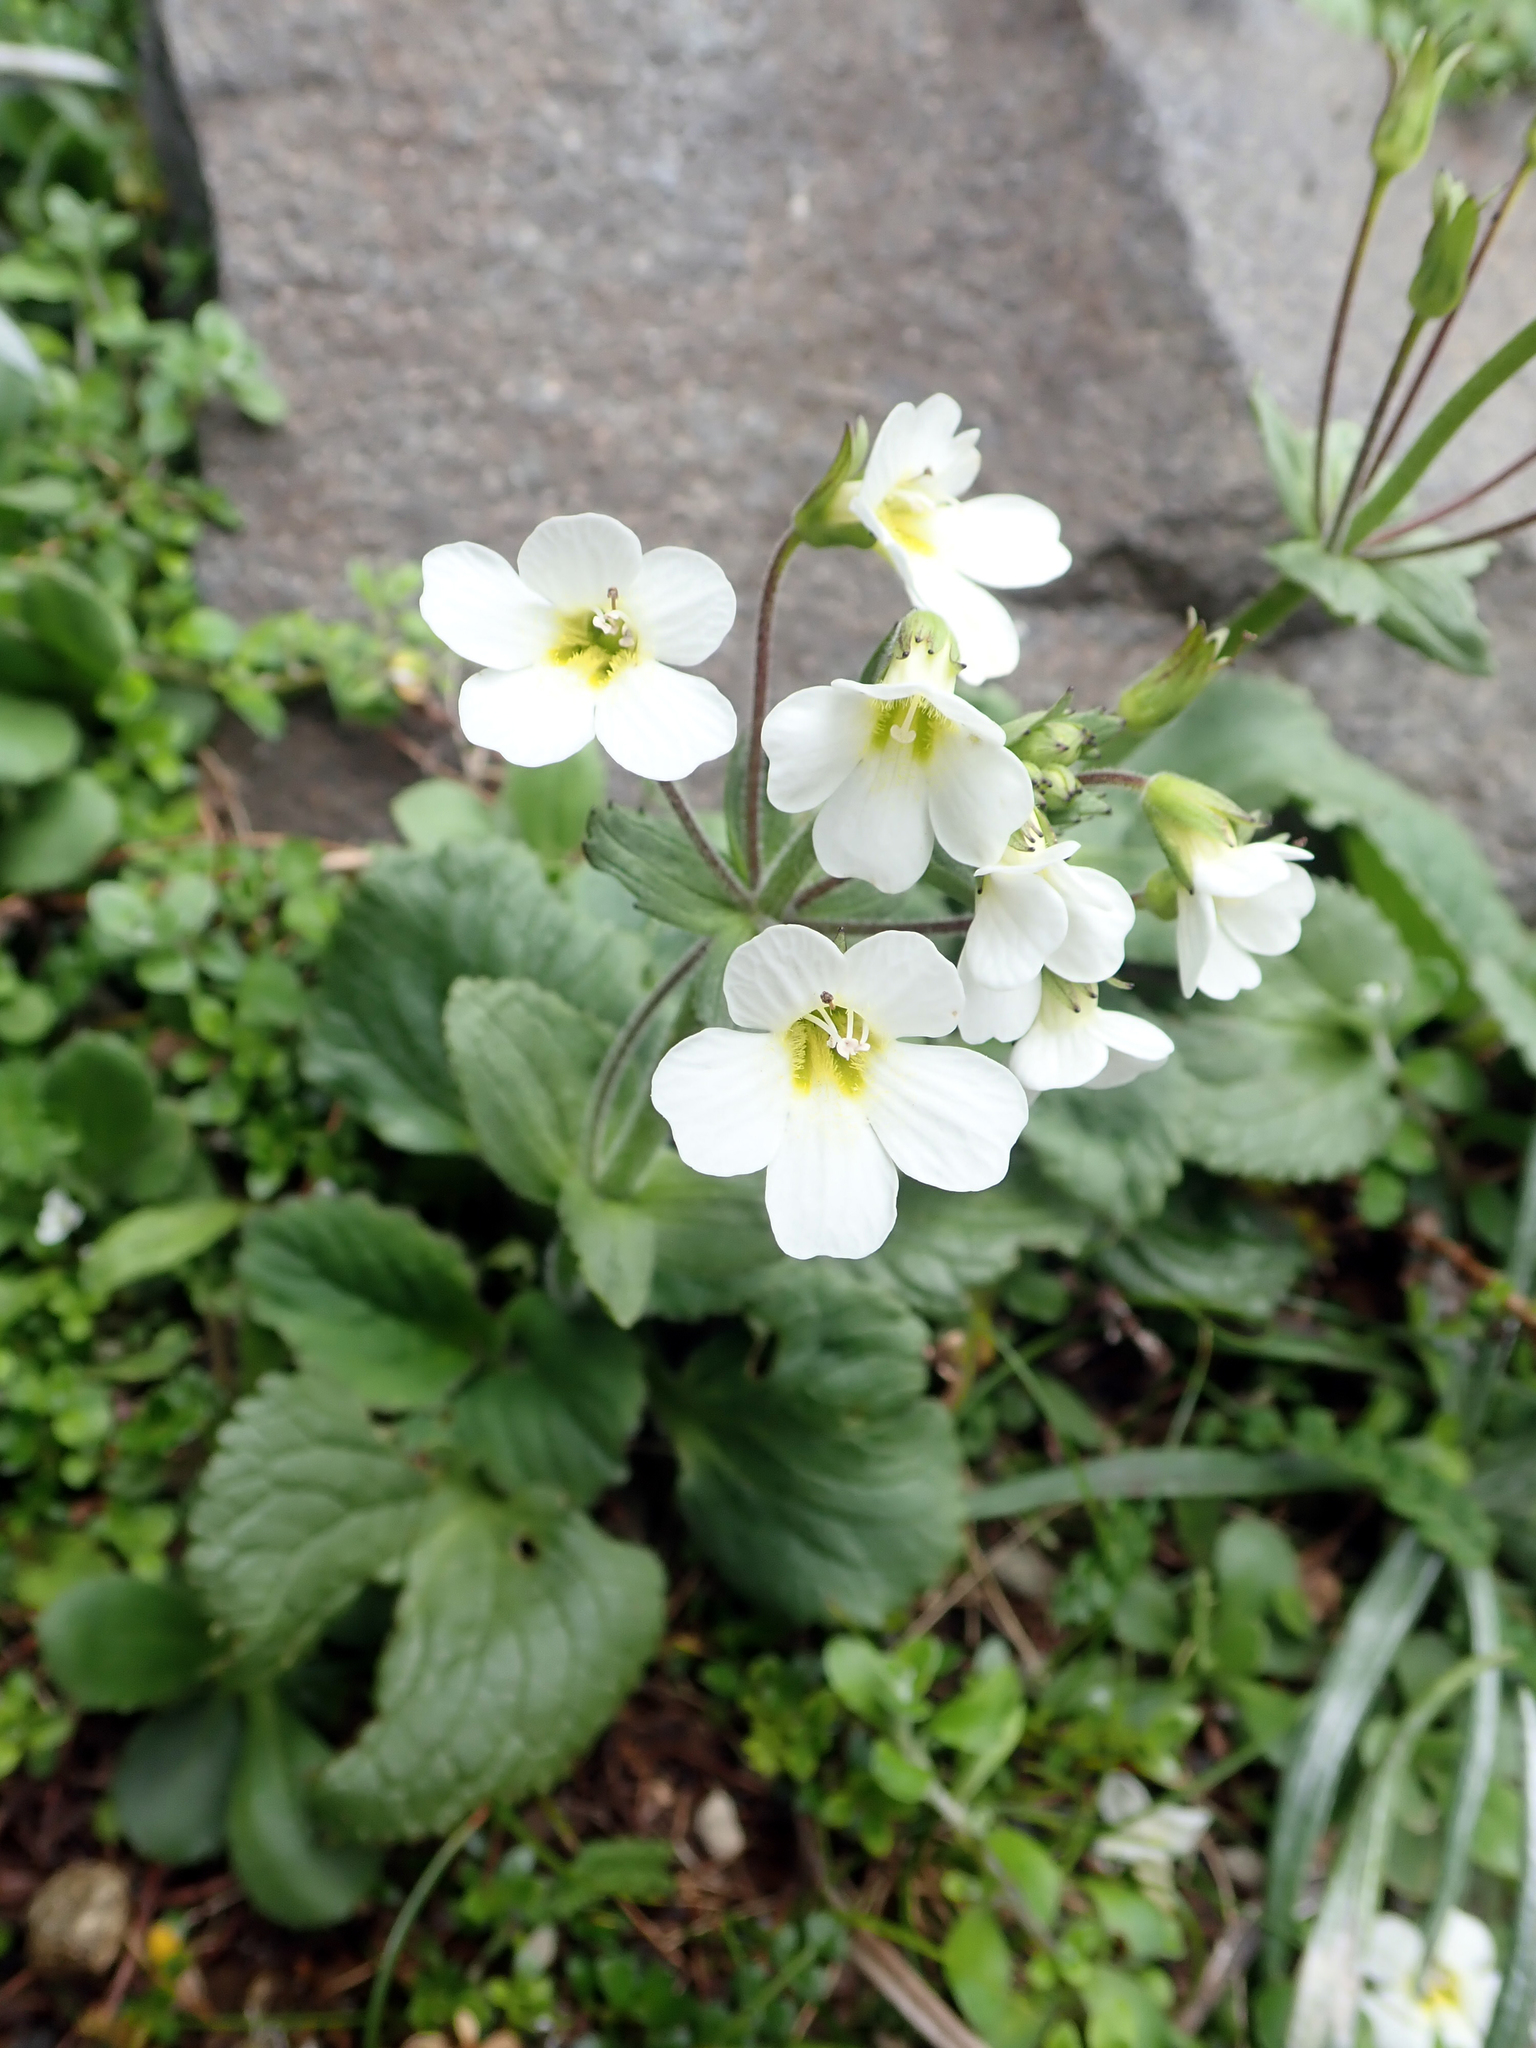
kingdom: Plantae
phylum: Tracheophyta
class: Magnoliopsida
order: Lamiales
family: Plantaginaceae
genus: Ourisia
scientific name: Ourisia macrophylla
